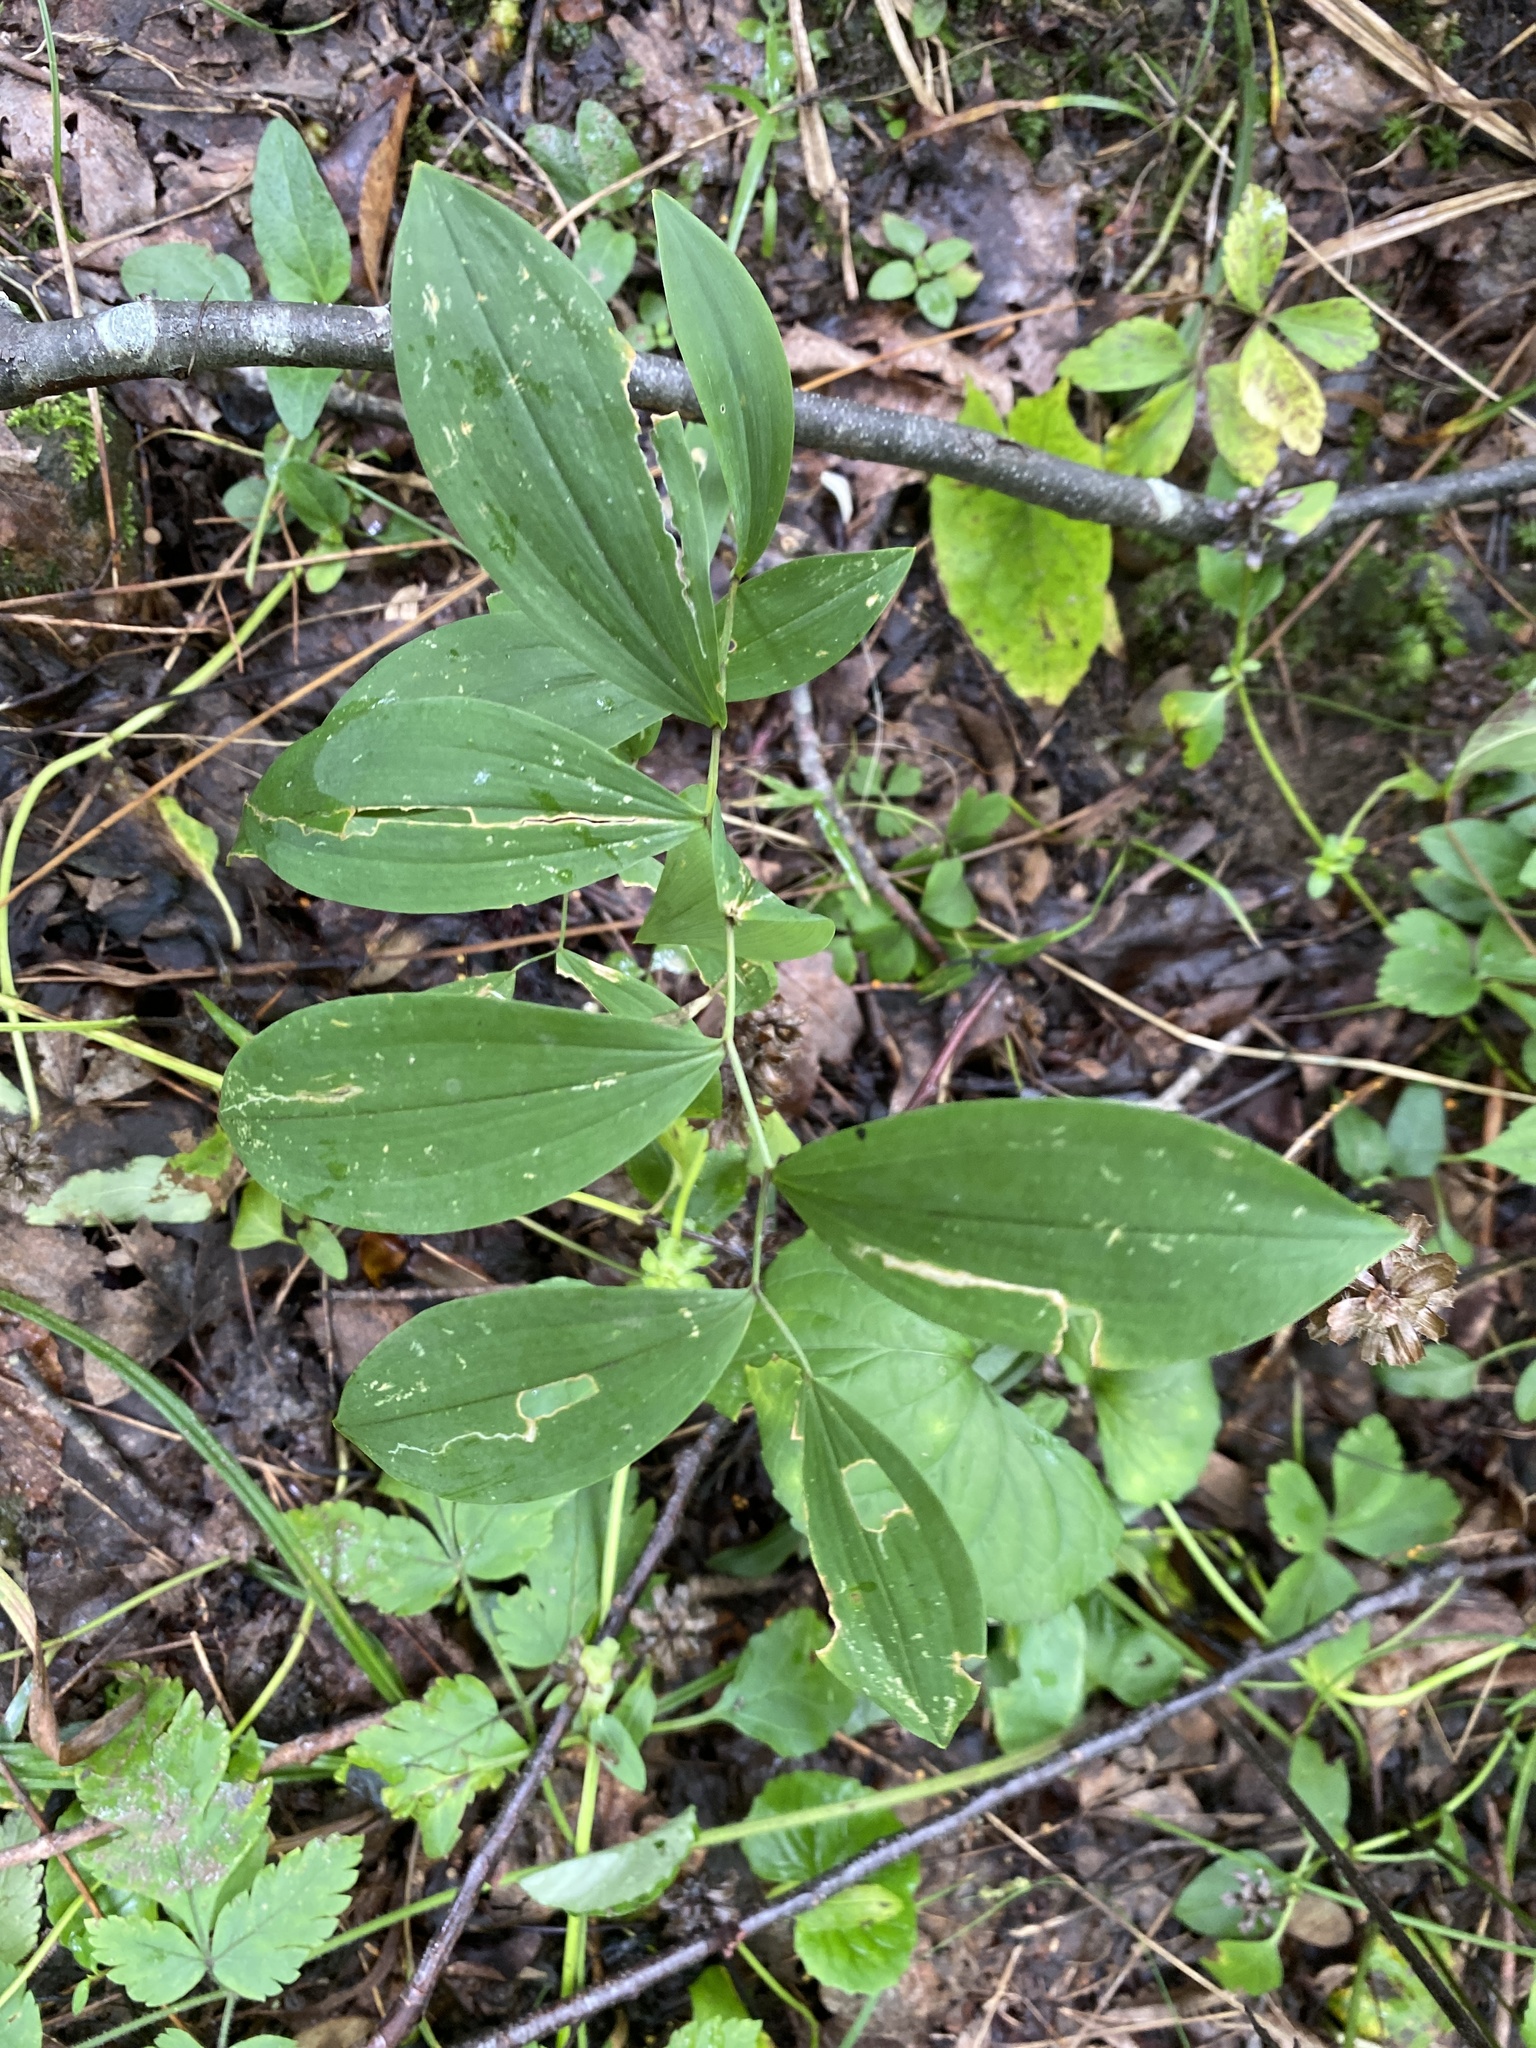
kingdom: Plantae
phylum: Tracheophyta
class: Liliopsida
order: Liliales
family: Colchicaceae
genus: Uvularia
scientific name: Uvularia sessilifolia
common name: Straw-lily
